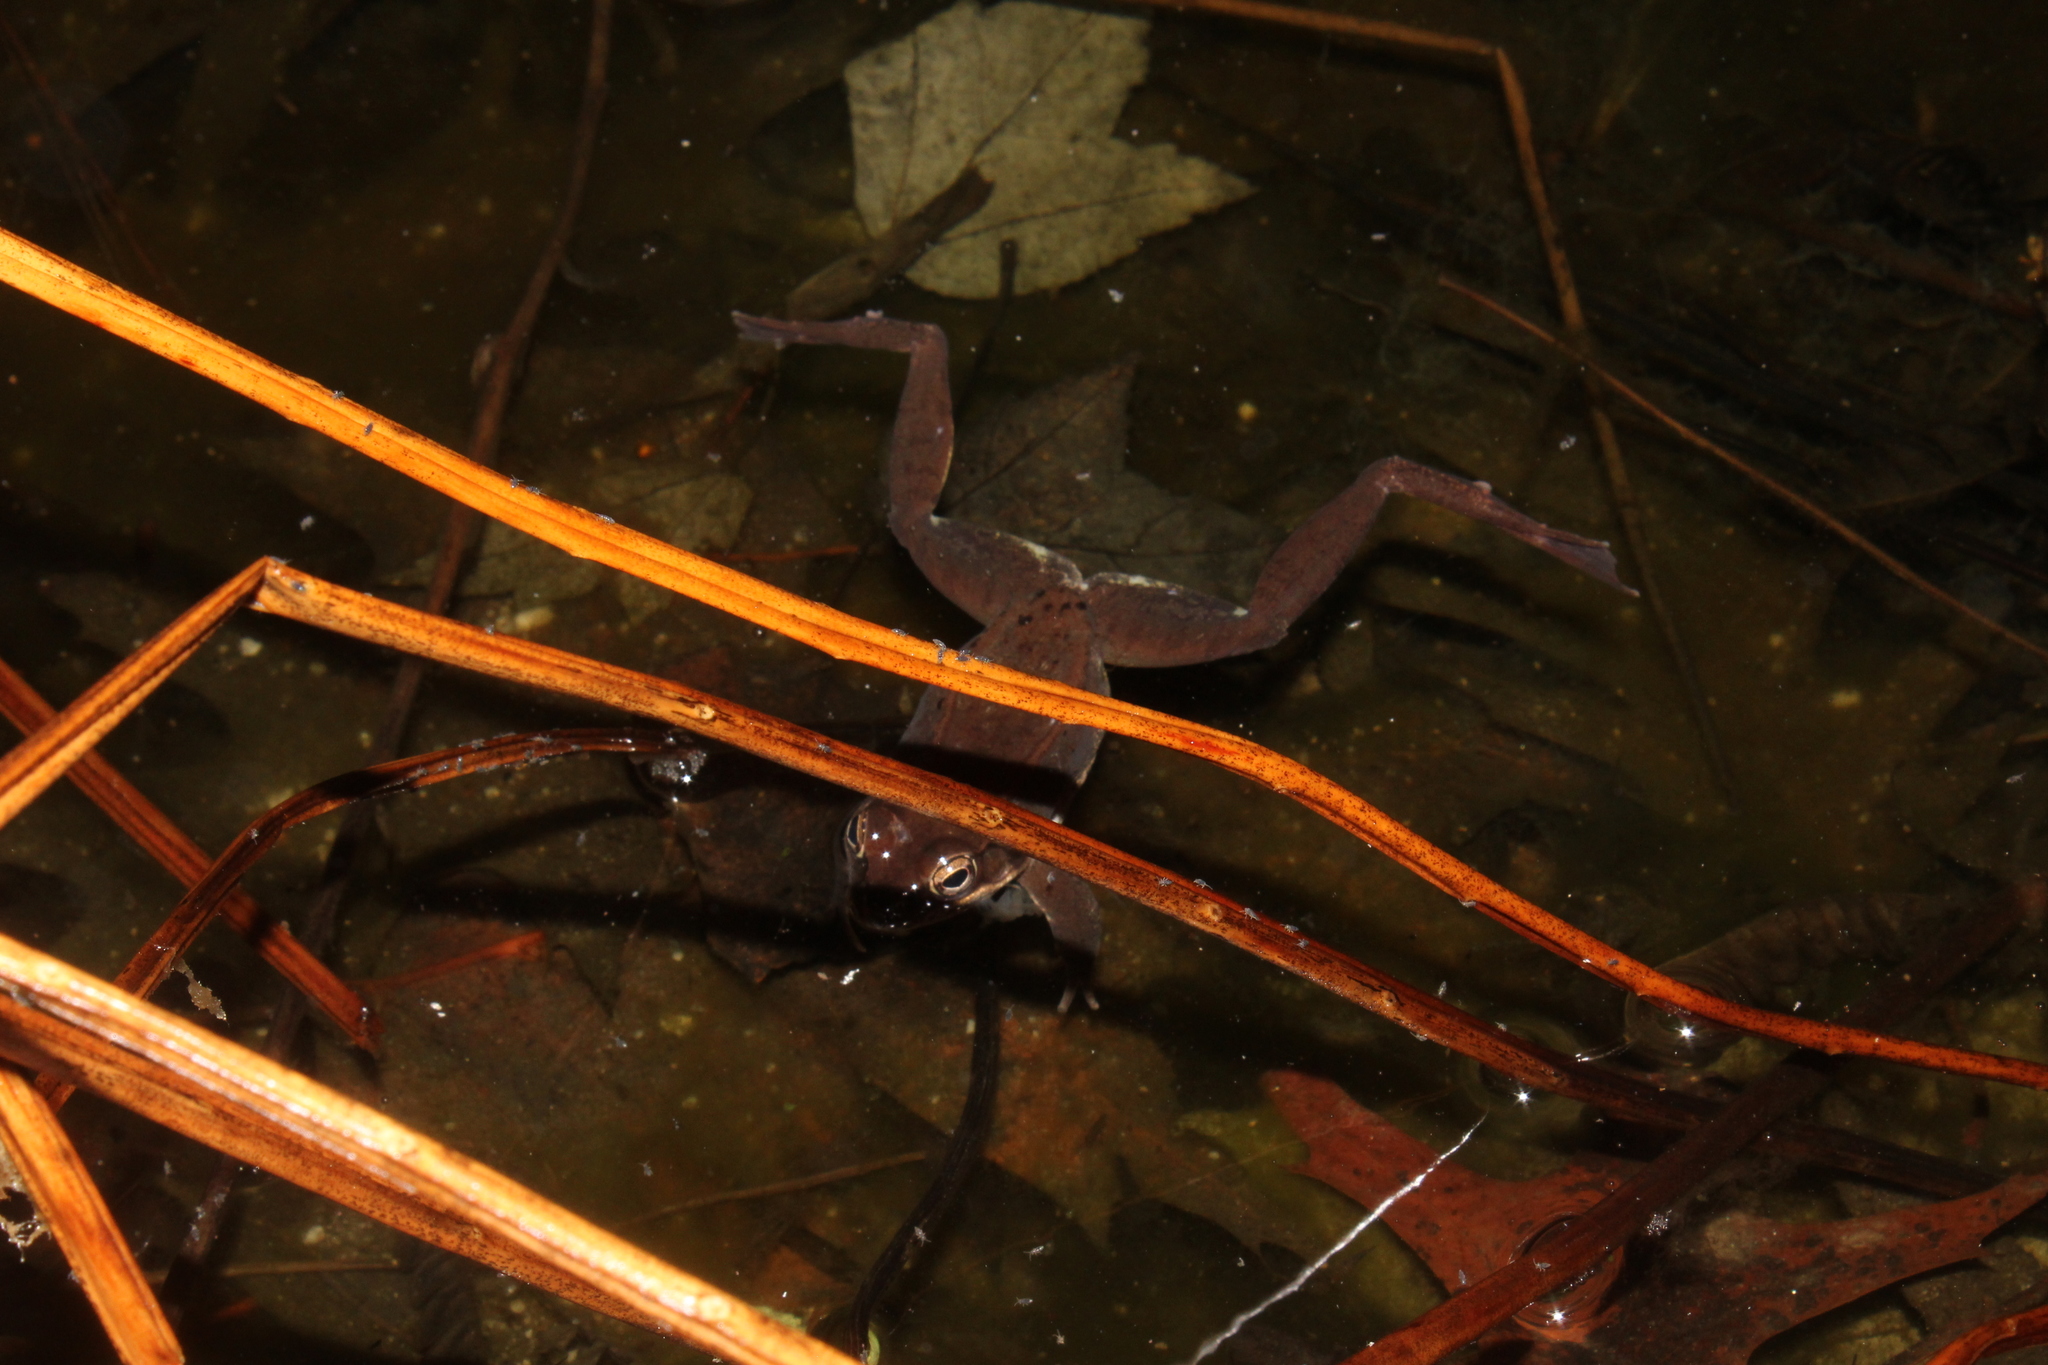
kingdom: Animalia
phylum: Chordata
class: Amphibia
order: Anura
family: Ranidae
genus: Lithobates
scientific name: Lithobates sylvaticus
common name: Wood frog
